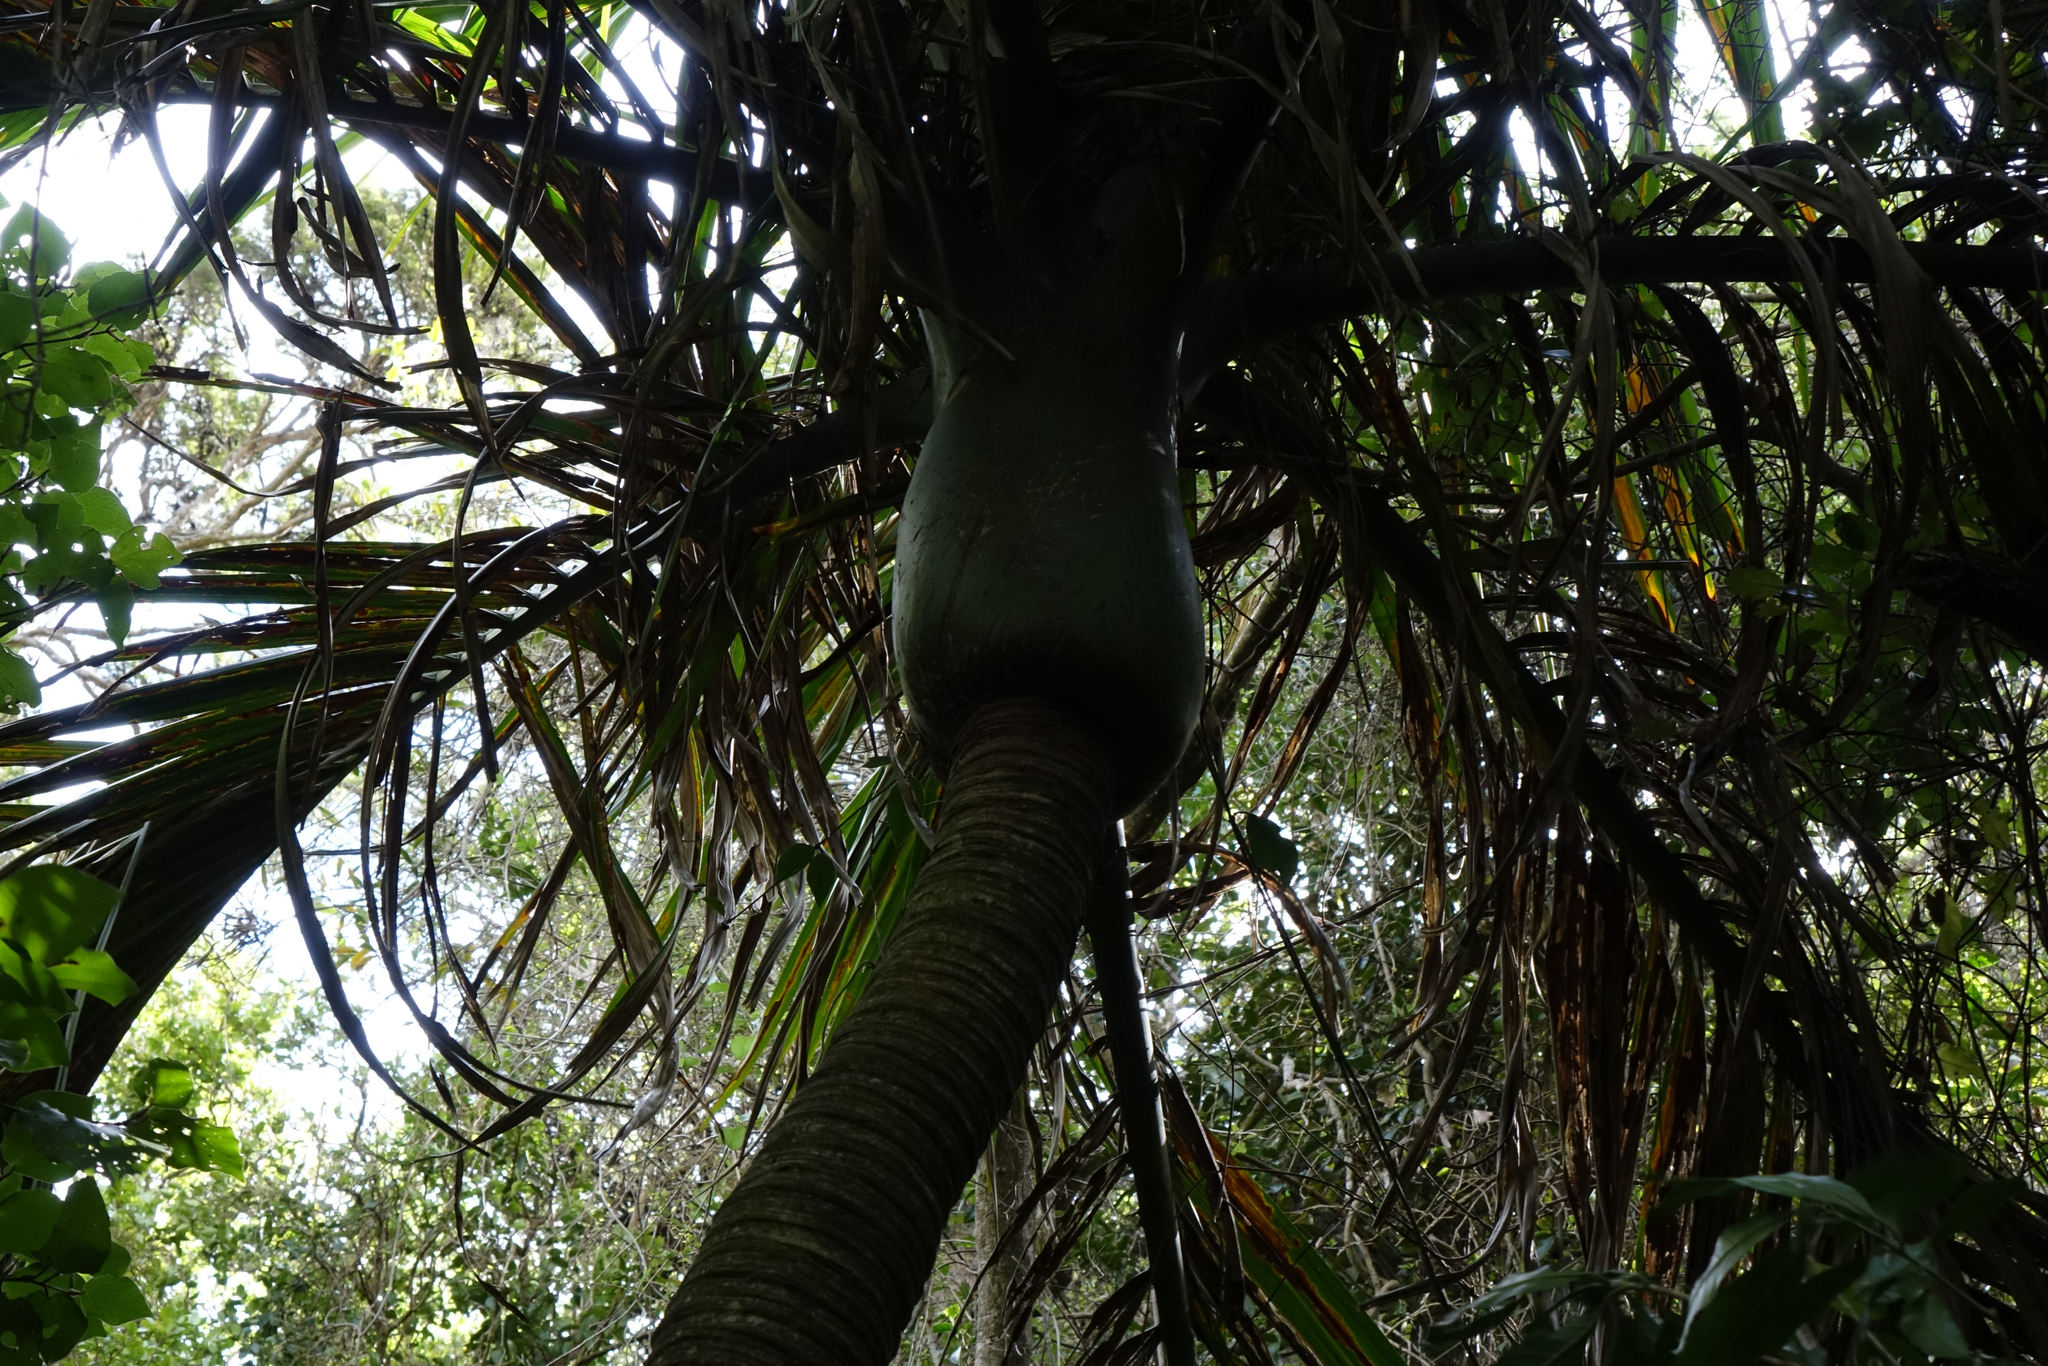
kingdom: Plantae
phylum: Tracheophyta
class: Liliopsida
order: Arecales
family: Arecaceae
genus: Rhopalostylis
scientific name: Rhopalostylis sapida
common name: Feather-duster palm
